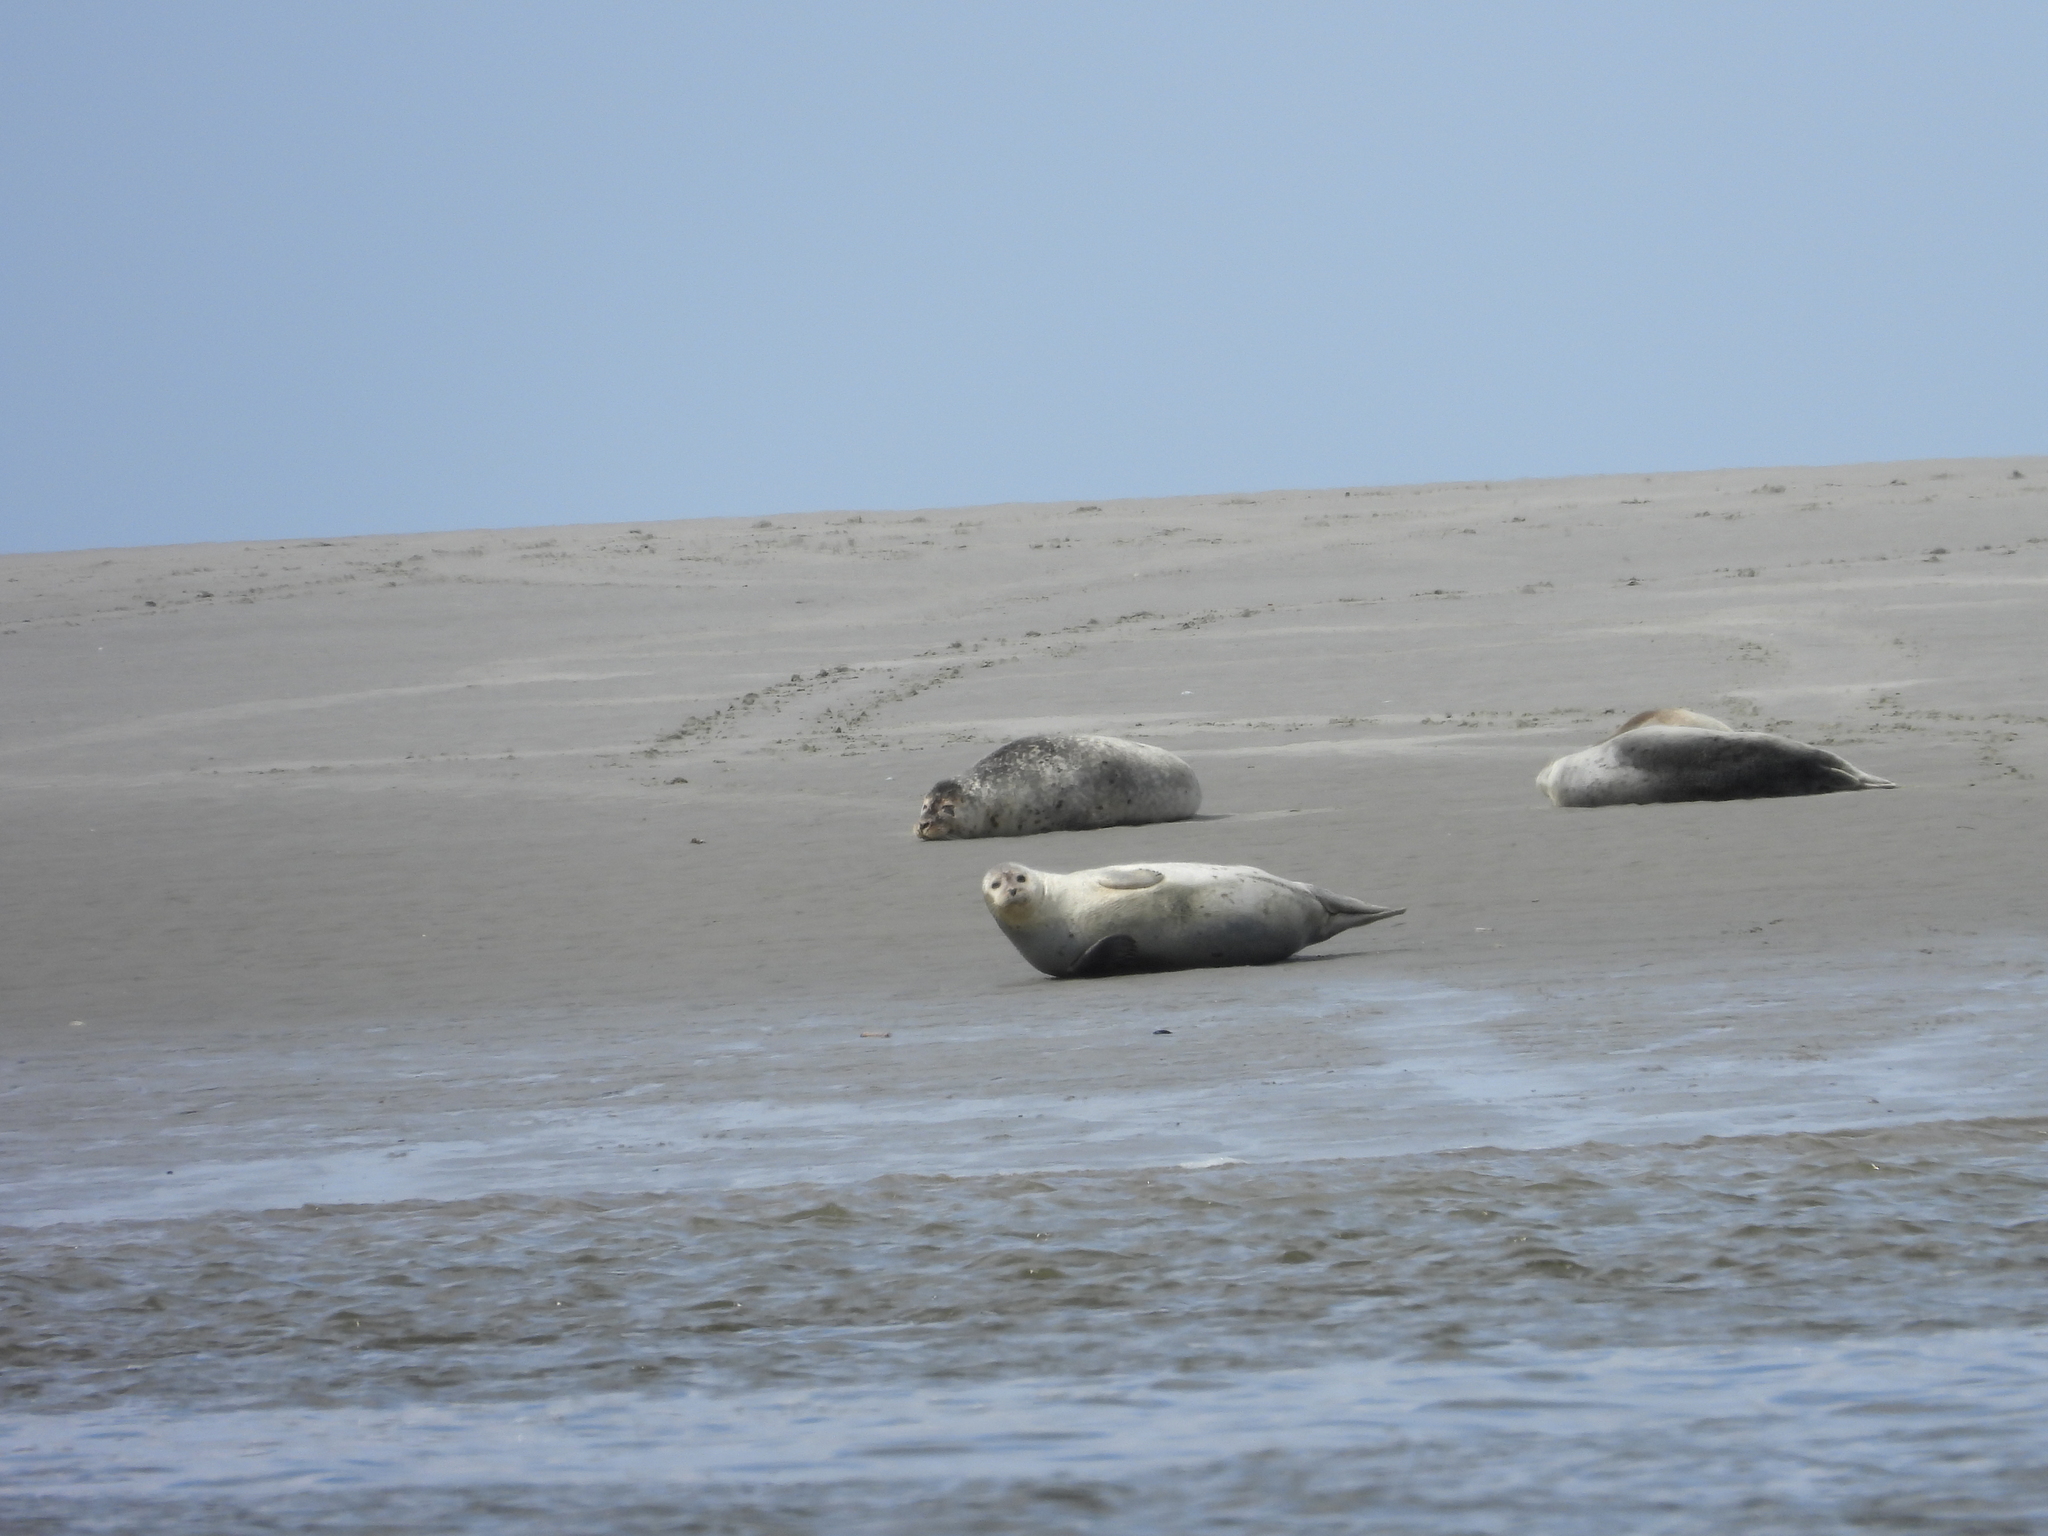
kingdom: Animalia
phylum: Chordata
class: Mammalia
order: Carnivora
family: Phocidae
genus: Phoca
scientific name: Phoca vitulina
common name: Harbor seal
